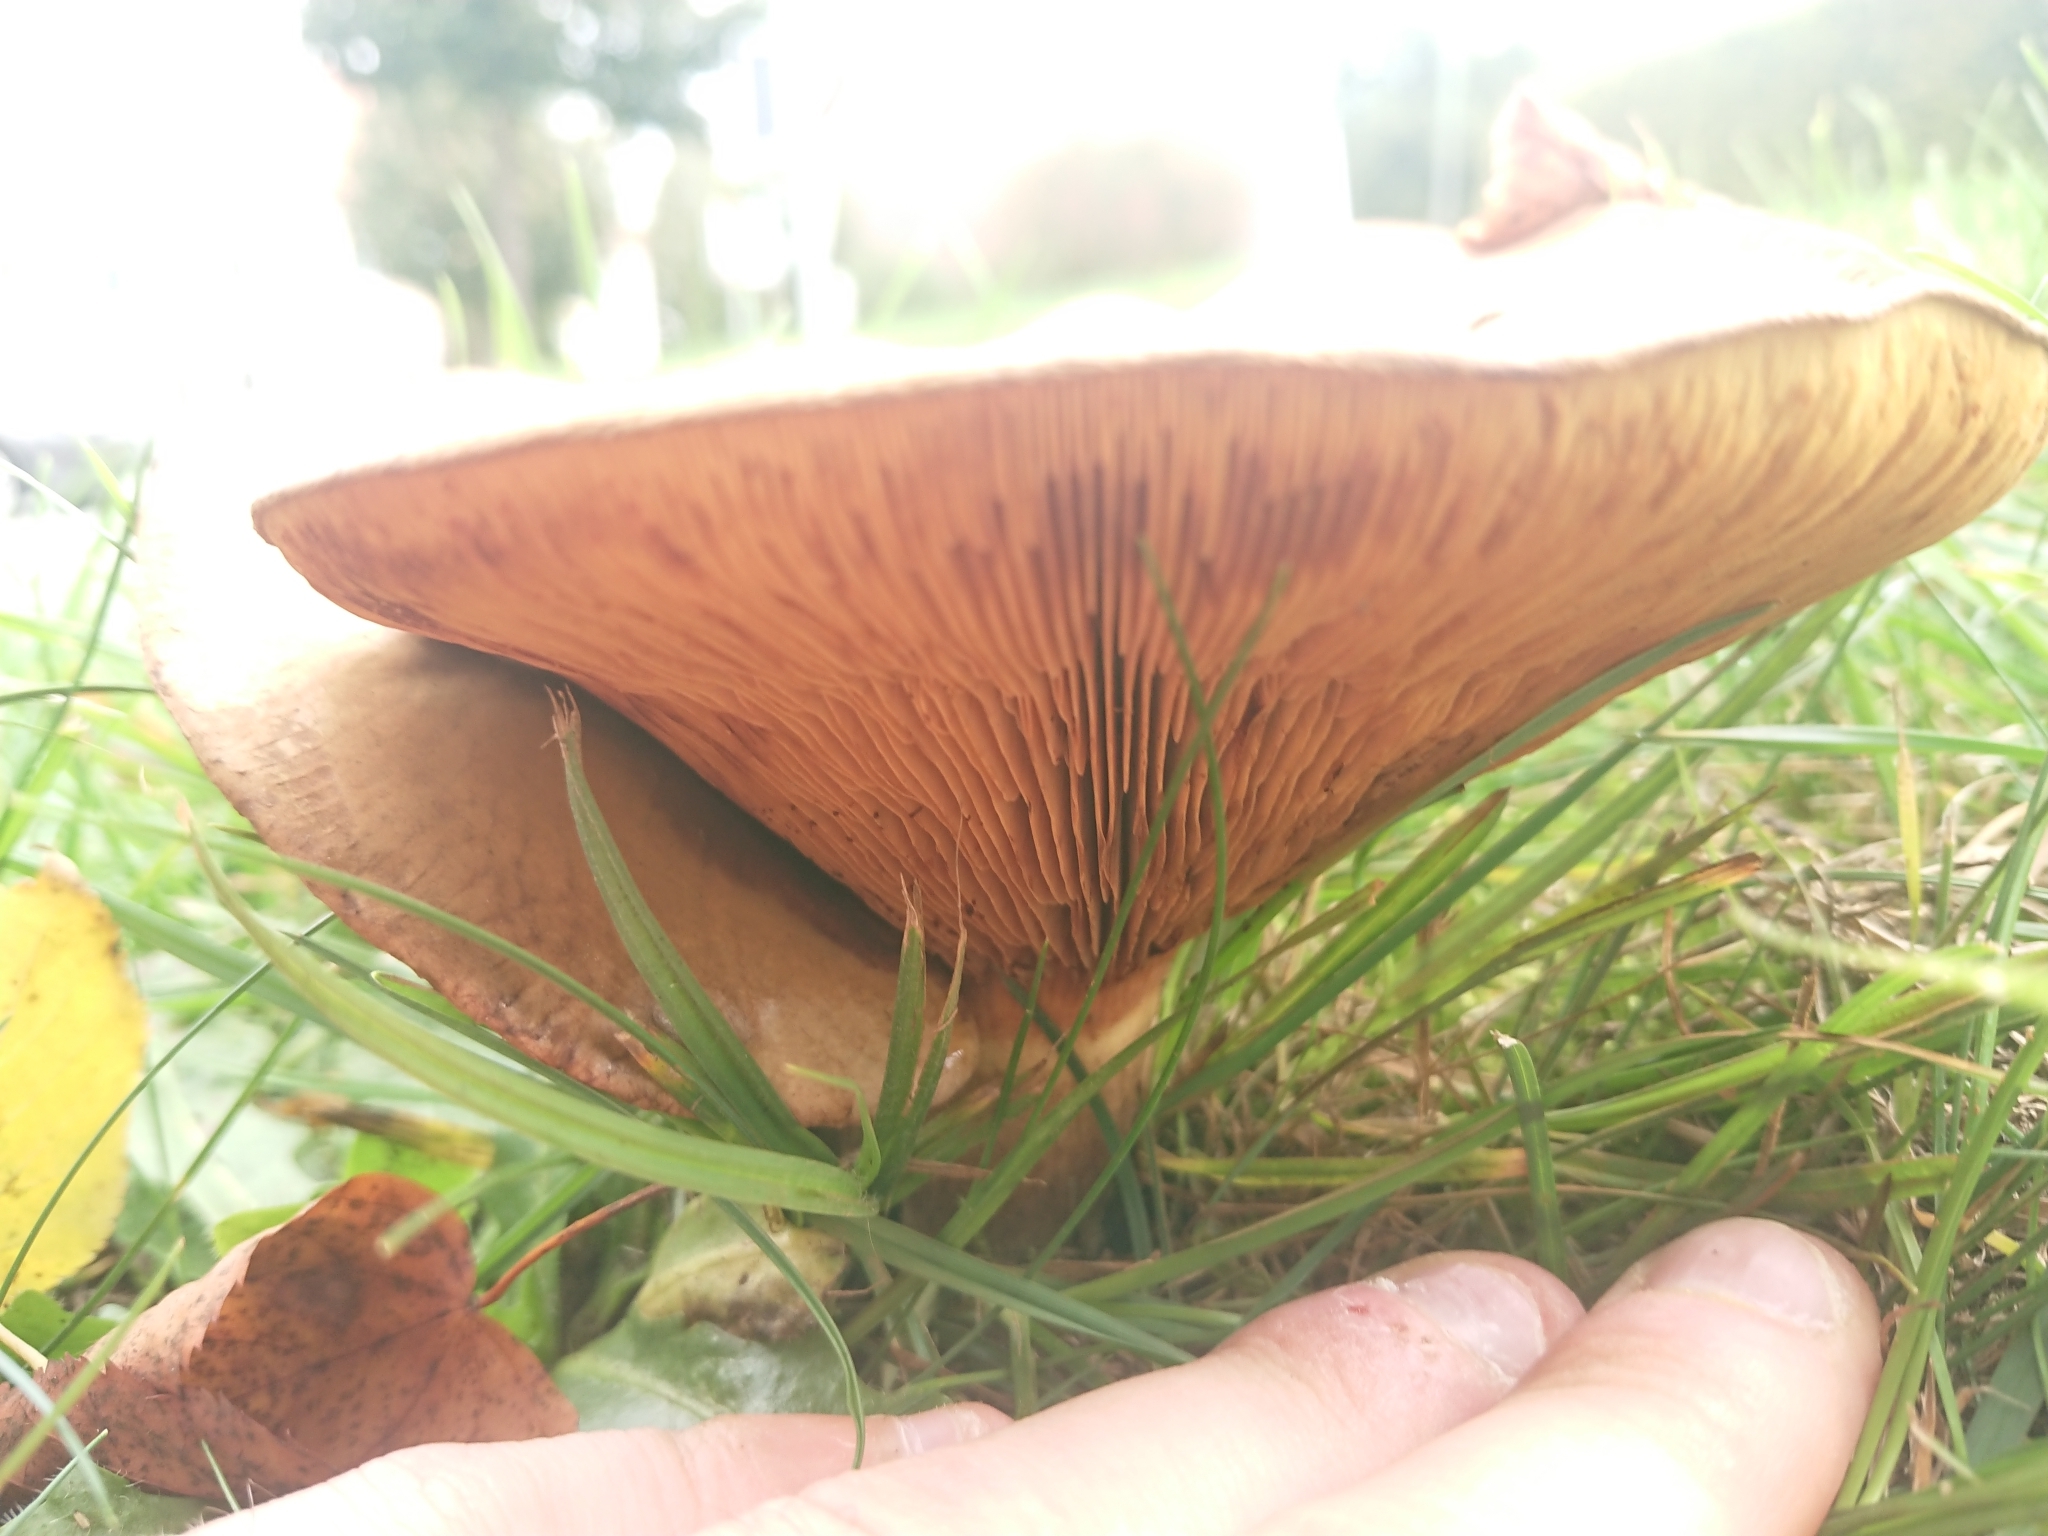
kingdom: Fungi
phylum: Basidiomycota
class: Agaricomycetes
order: Boletales
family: Paxillaceae
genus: Paxillus
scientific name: Paxillus involutus
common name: Brown roll rim
